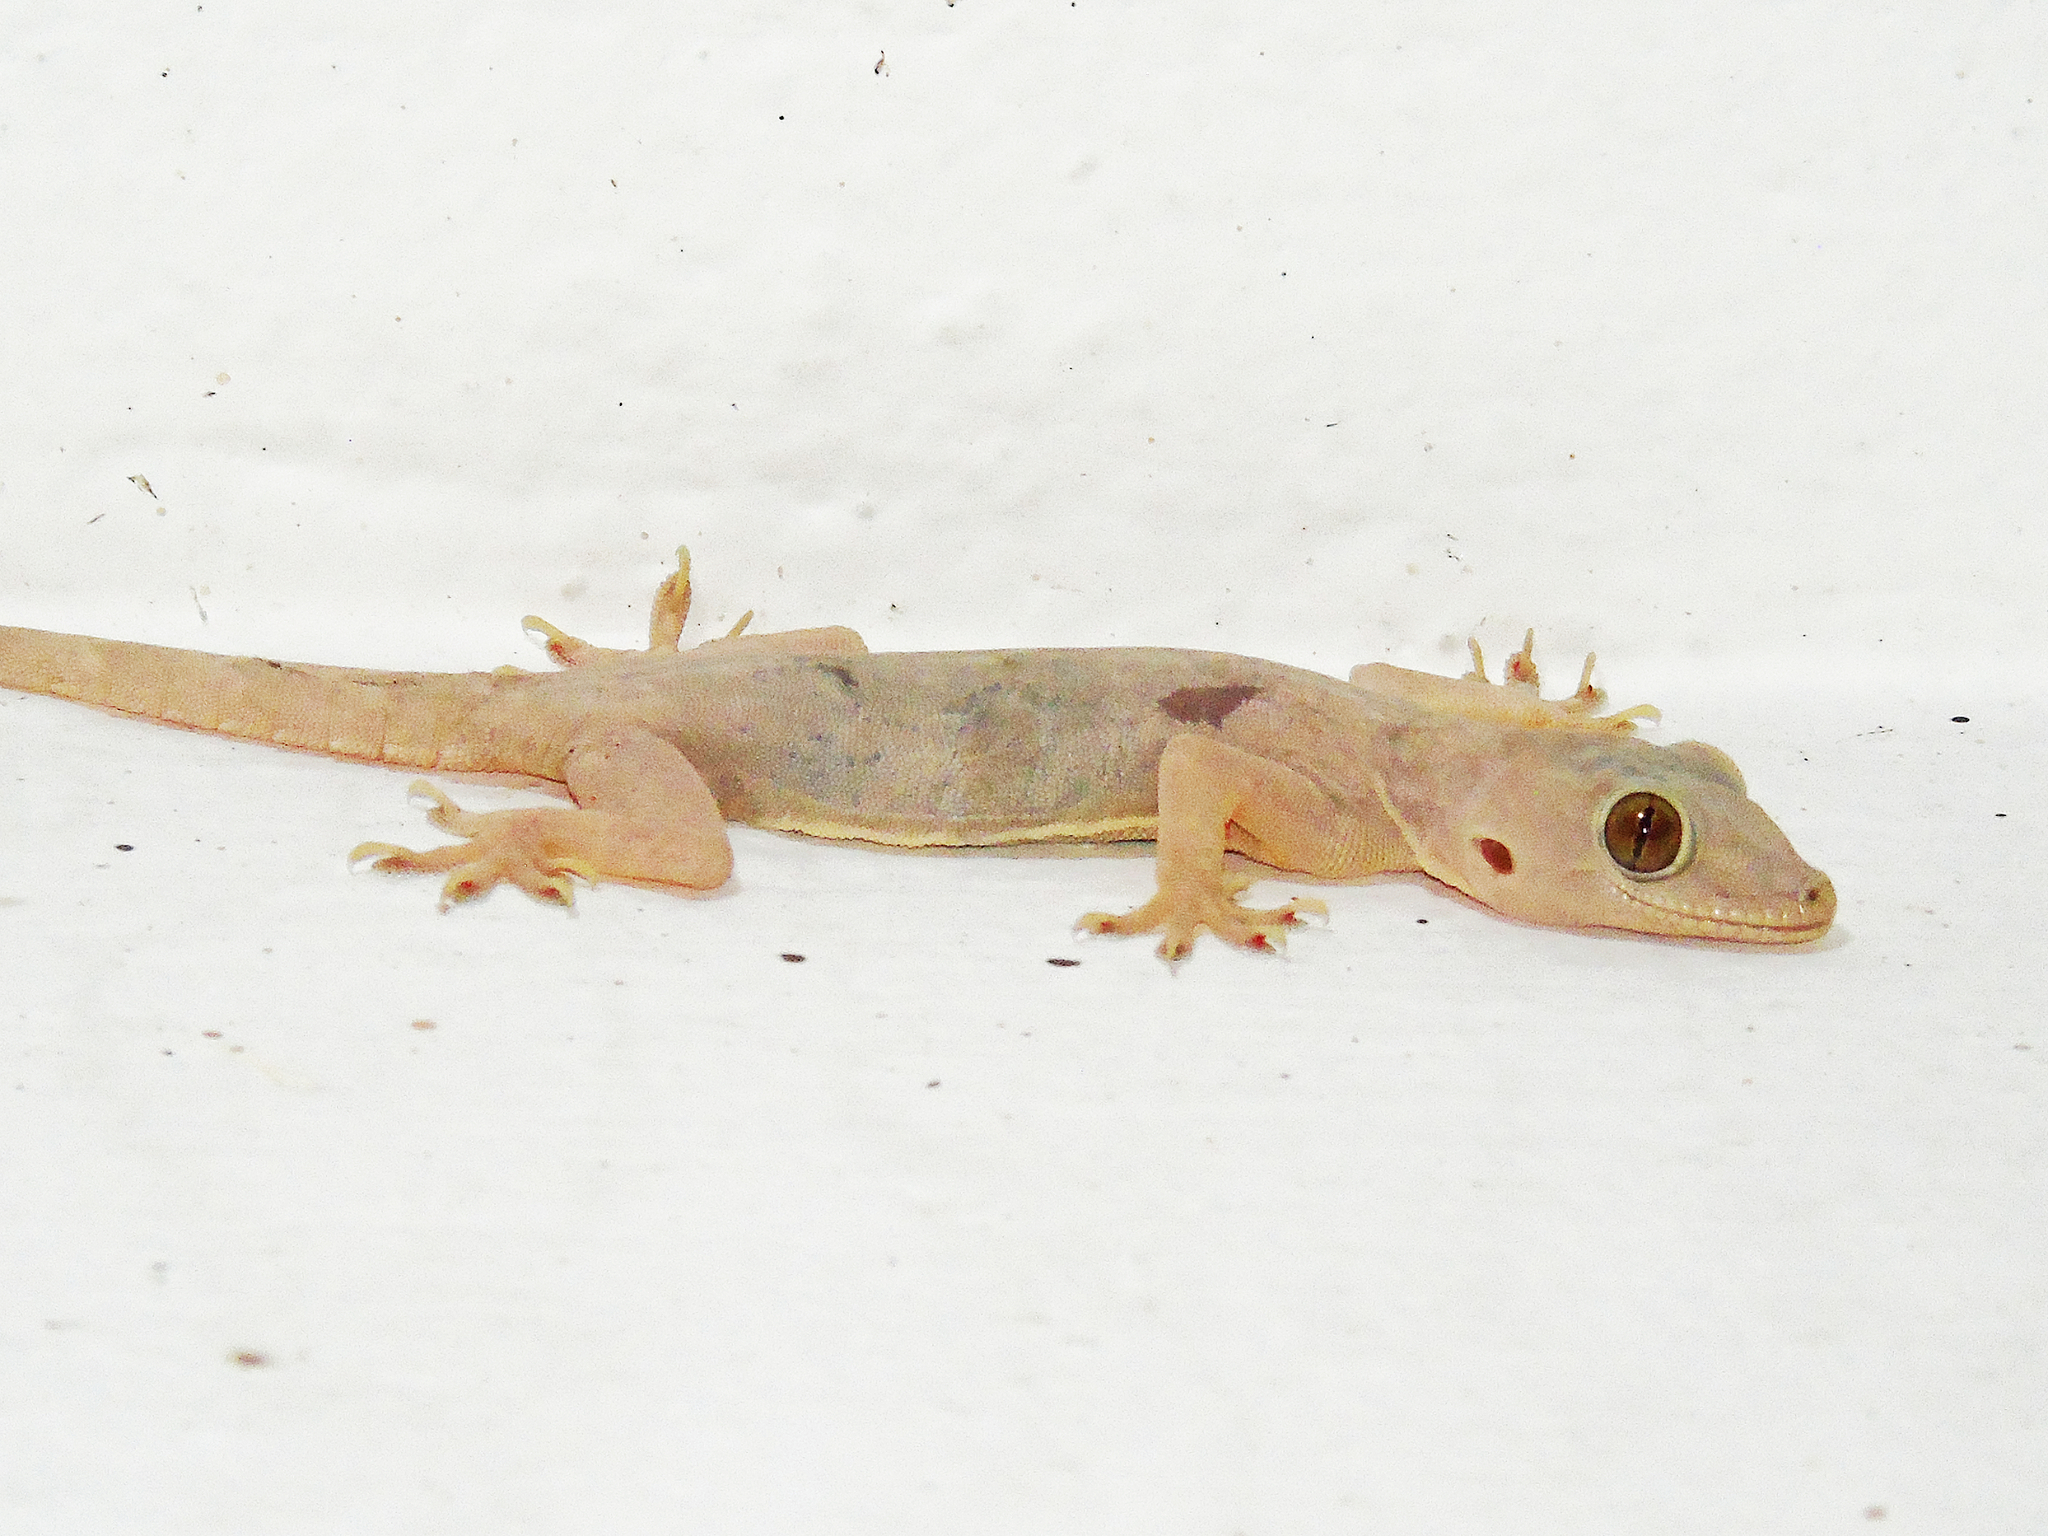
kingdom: Animalia
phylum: Chordata
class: Squamata
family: Gekkonidae
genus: Hemidactylus
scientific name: Hemidactylus flaviviridis
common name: Northern house gecko
